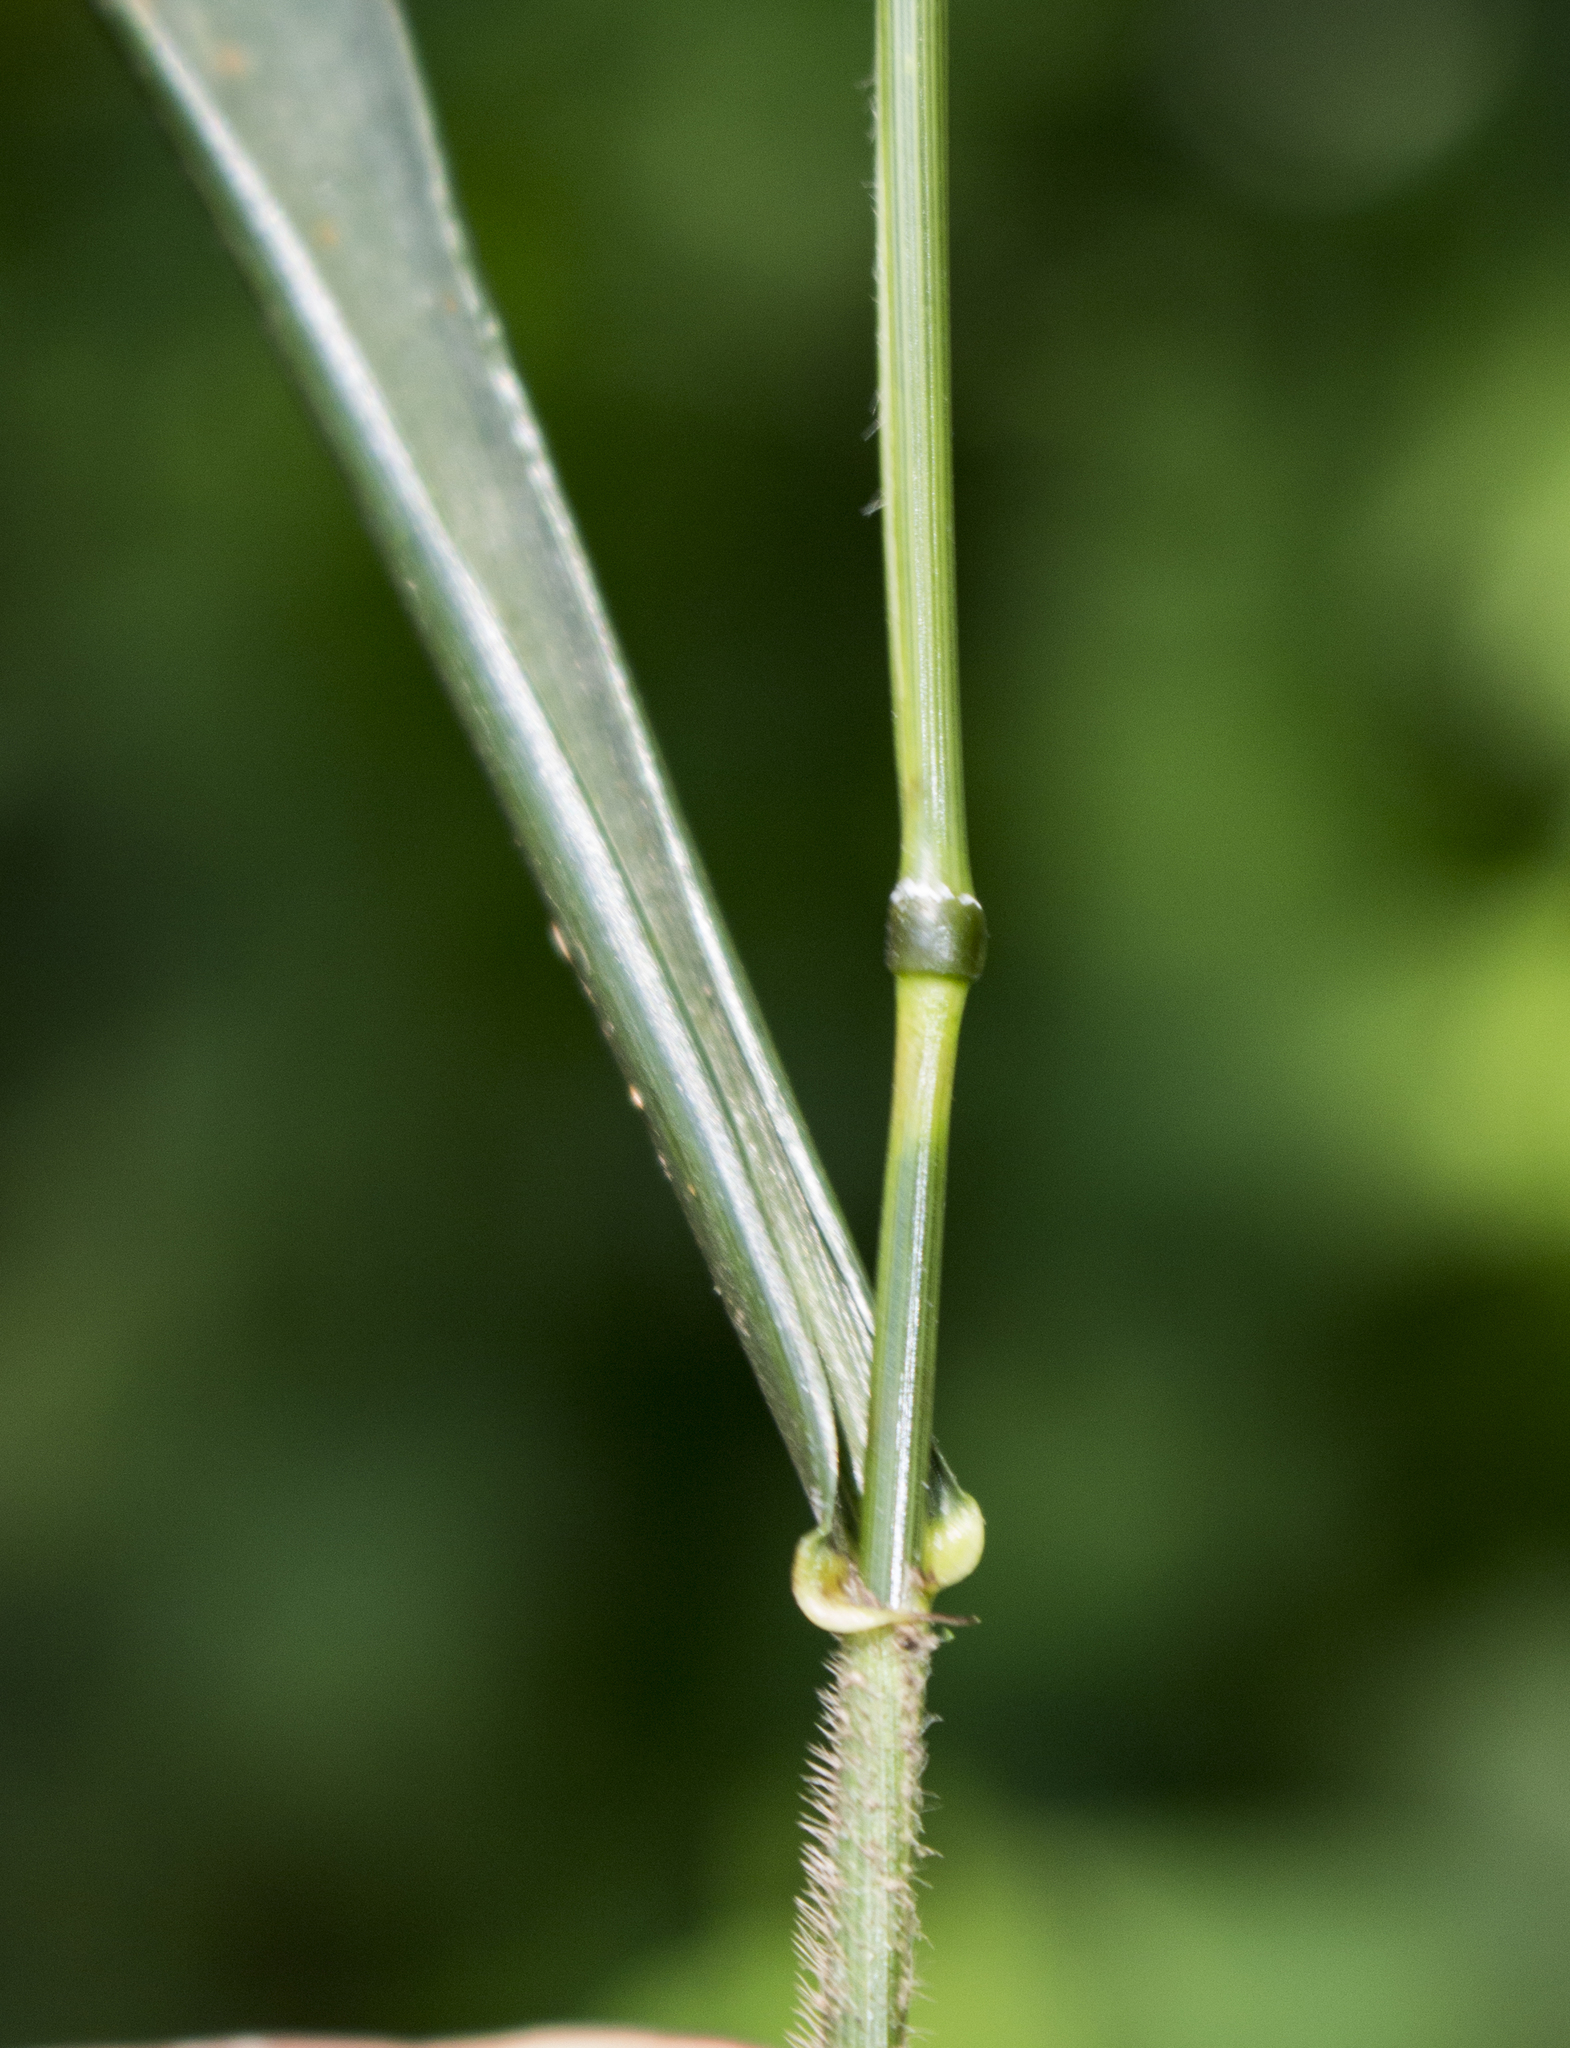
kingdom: Plantae
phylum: Tracheophyta
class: Liliopsida
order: Poales
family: Poaceae
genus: Elymus
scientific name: Elymus villosus
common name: Downy wild rye
